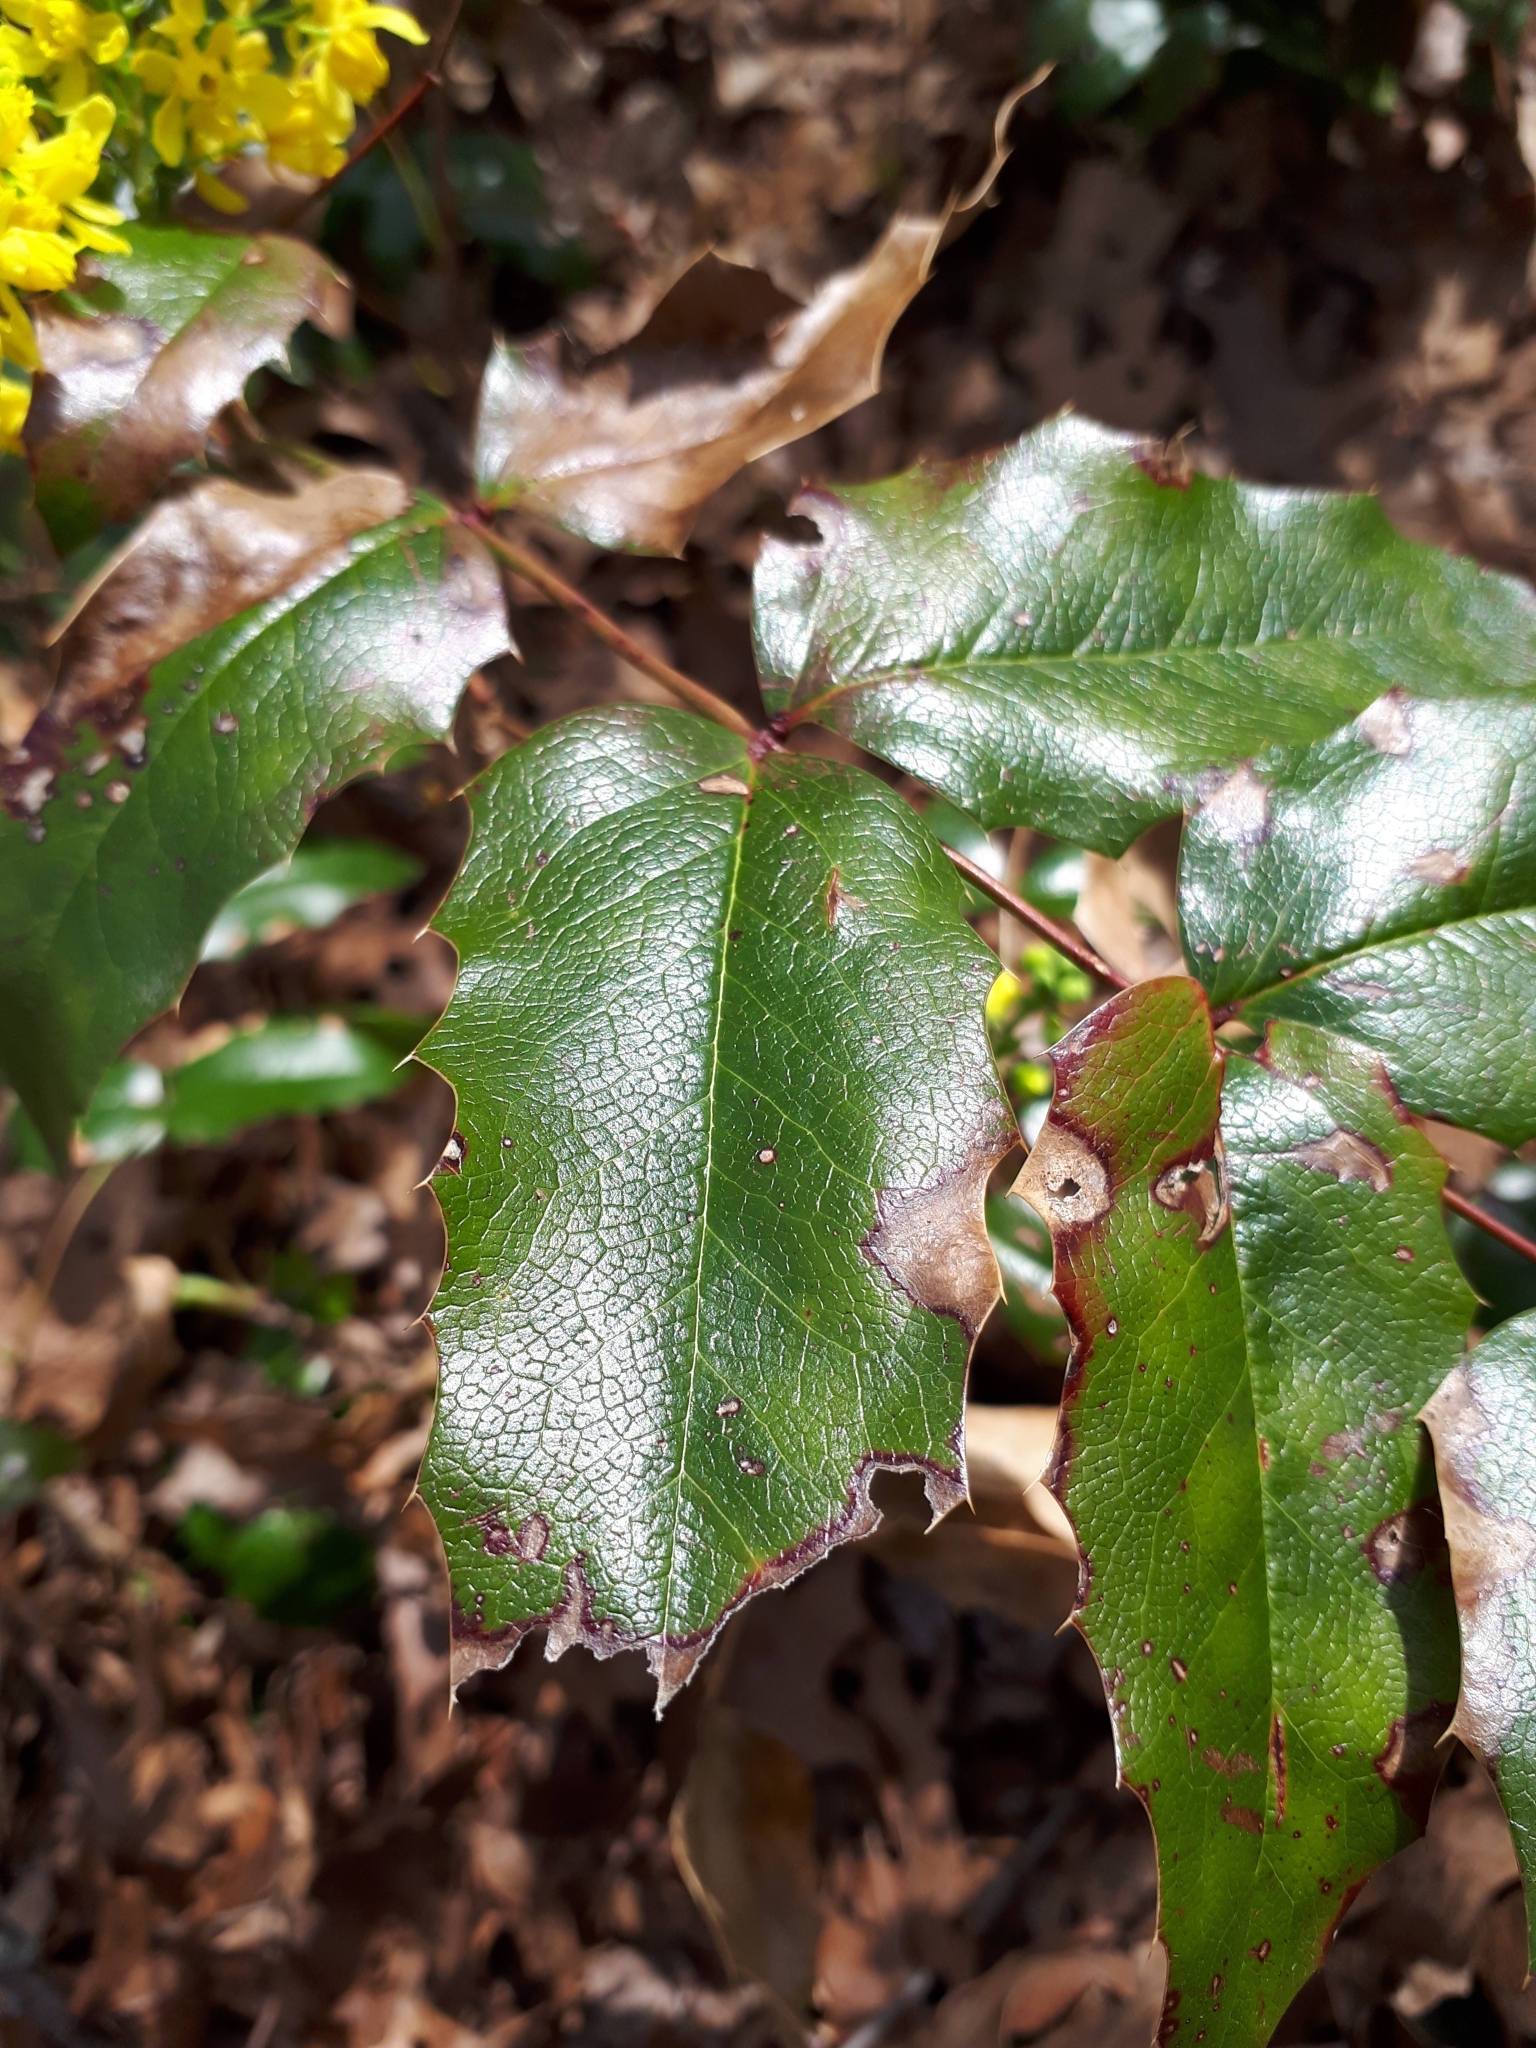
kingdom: Plantae
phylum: Tracheophyta
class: Magnoliopsida
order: Ranunculales
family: Berberidaceae
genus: Mahonia
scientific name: Mahonia aquifolium
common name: Oregon-grape
